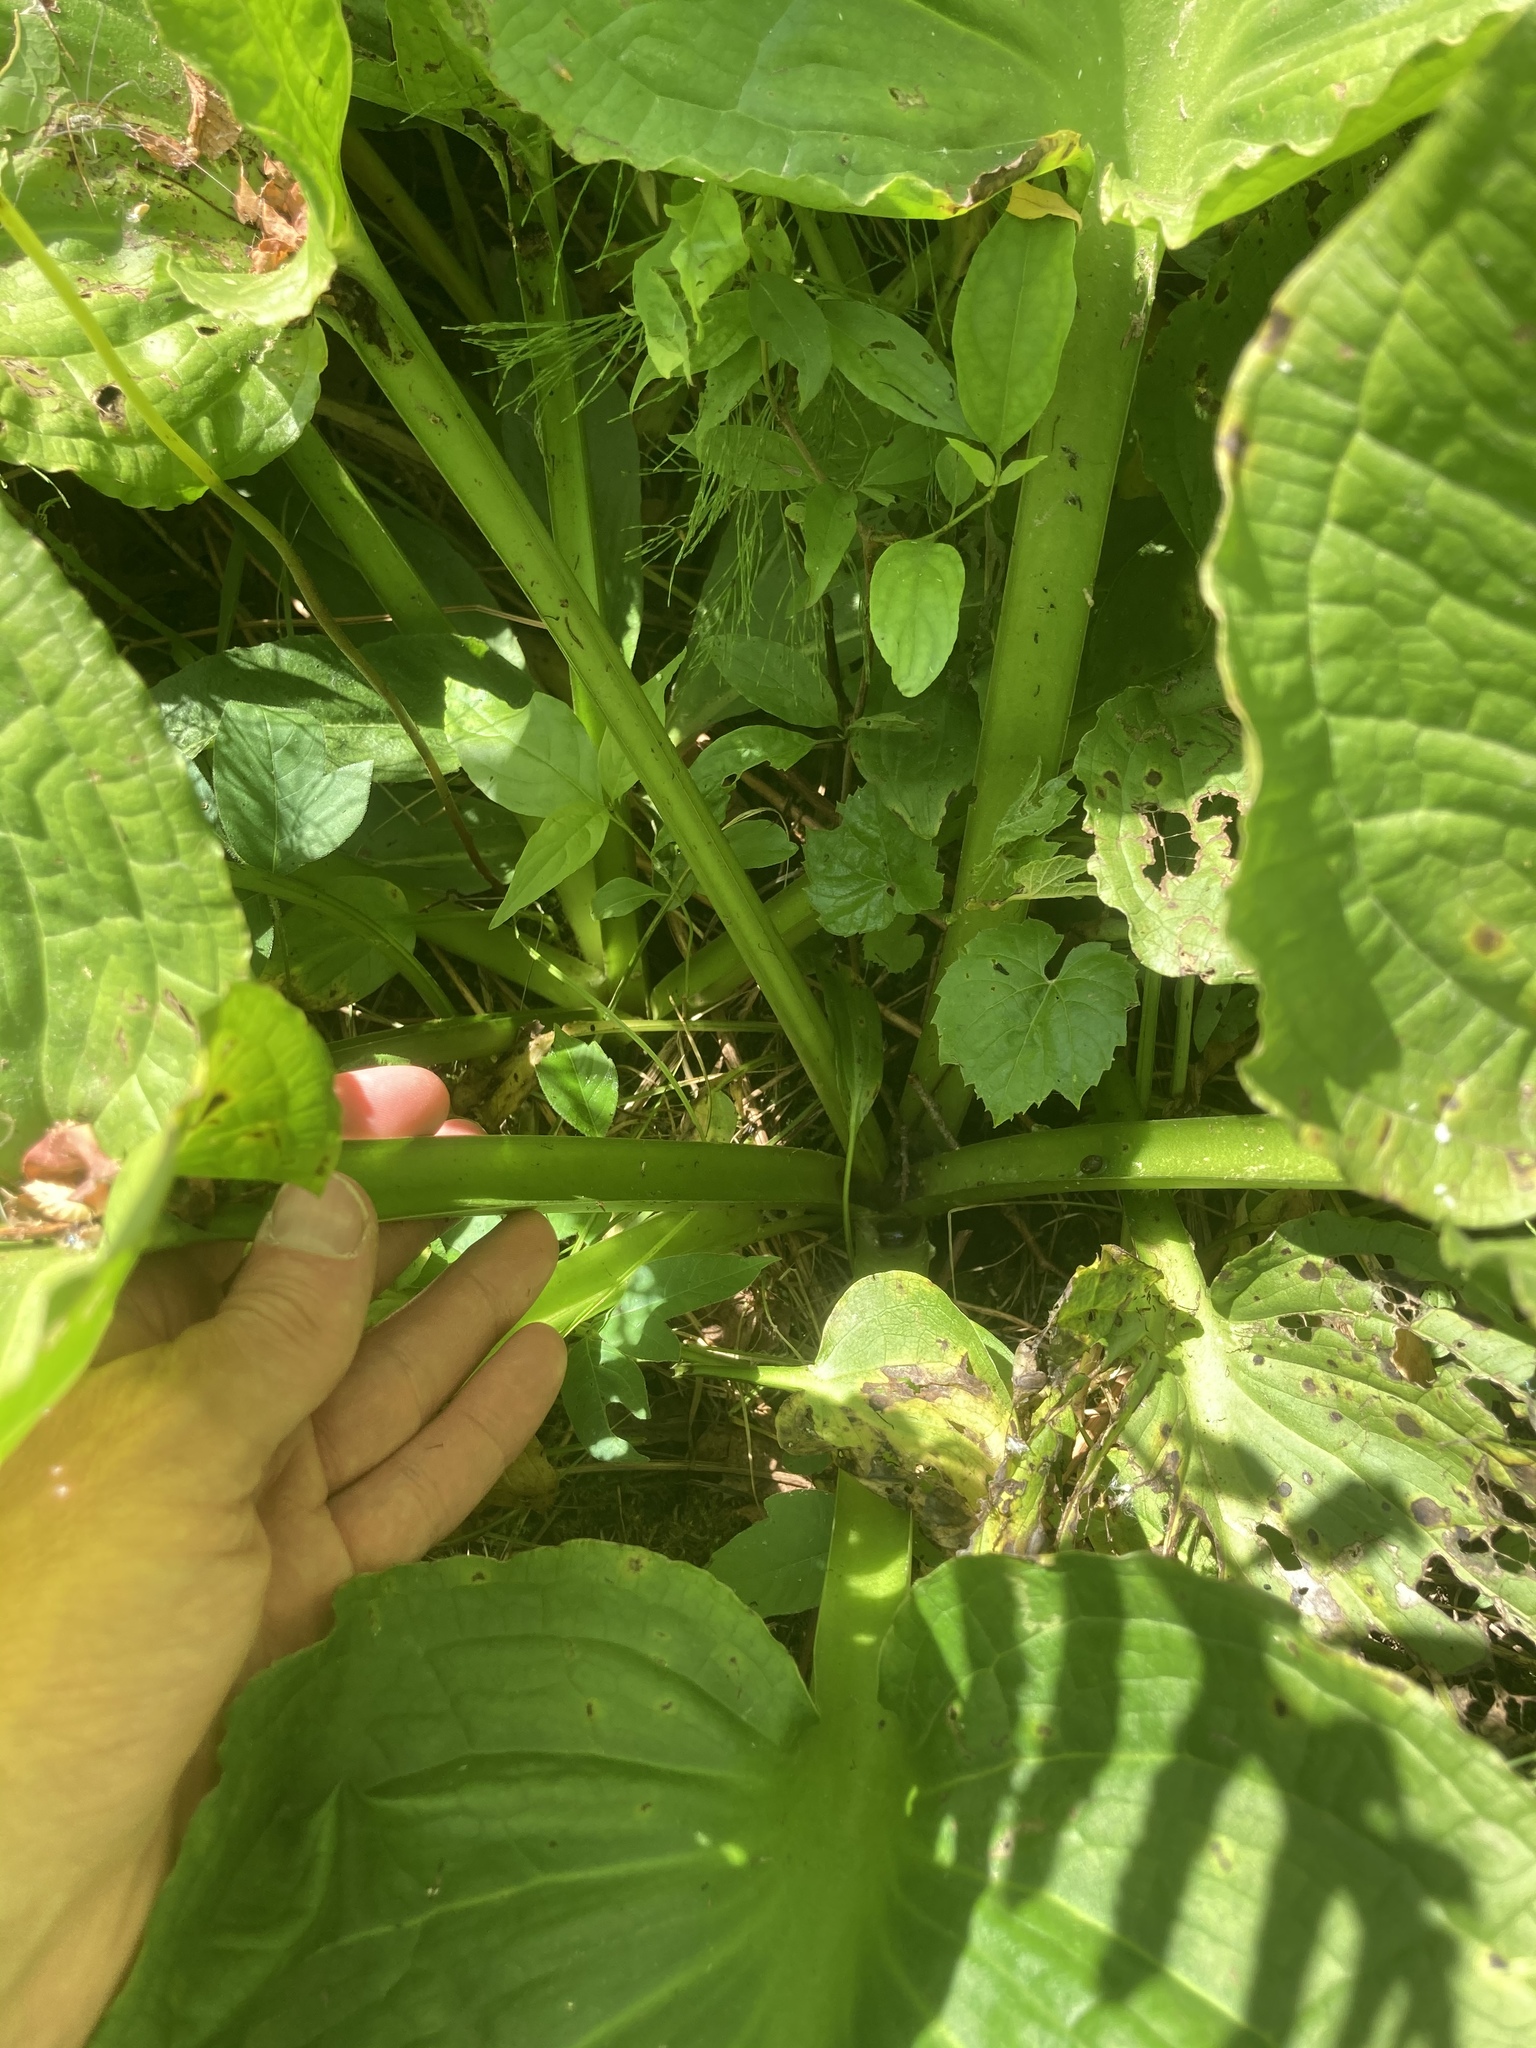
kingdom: Plantae
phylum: Tracheophyta
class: Liliopsida
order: Alismatales
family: Araceae
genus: Symplocarpus
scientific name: Symplocarpus foetidus
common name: Eastern skunk cabbage
